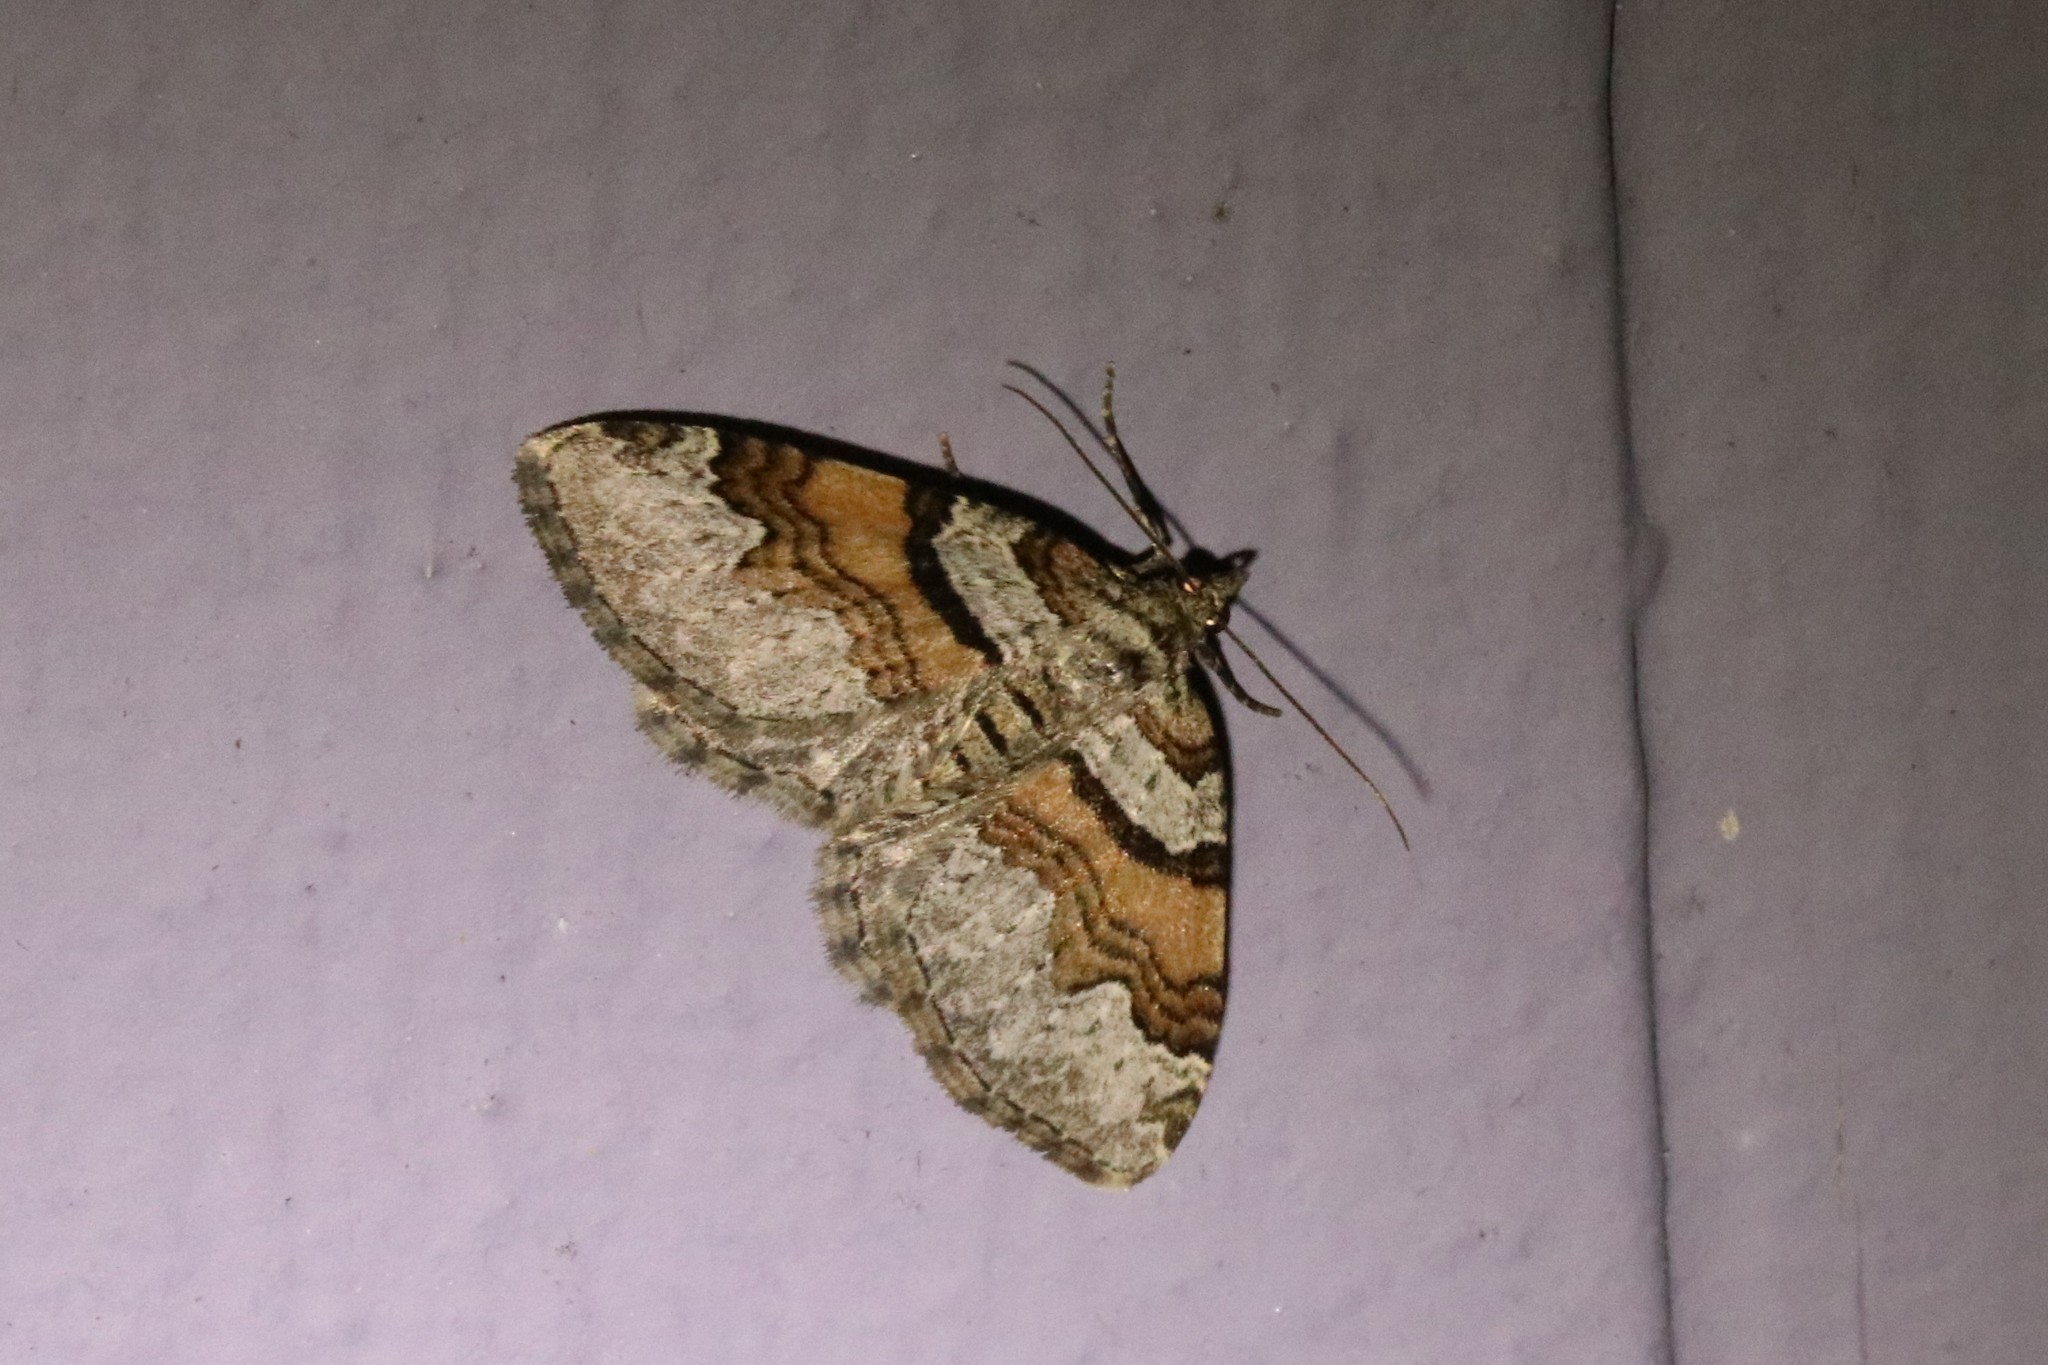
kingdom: Animalia
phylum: Arthropoda
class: Insecta
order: Lepidoptera
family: Geometridae
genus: Xanthorhoe
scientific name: Xanthorhoe labradorensis
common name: Labrador carpet
